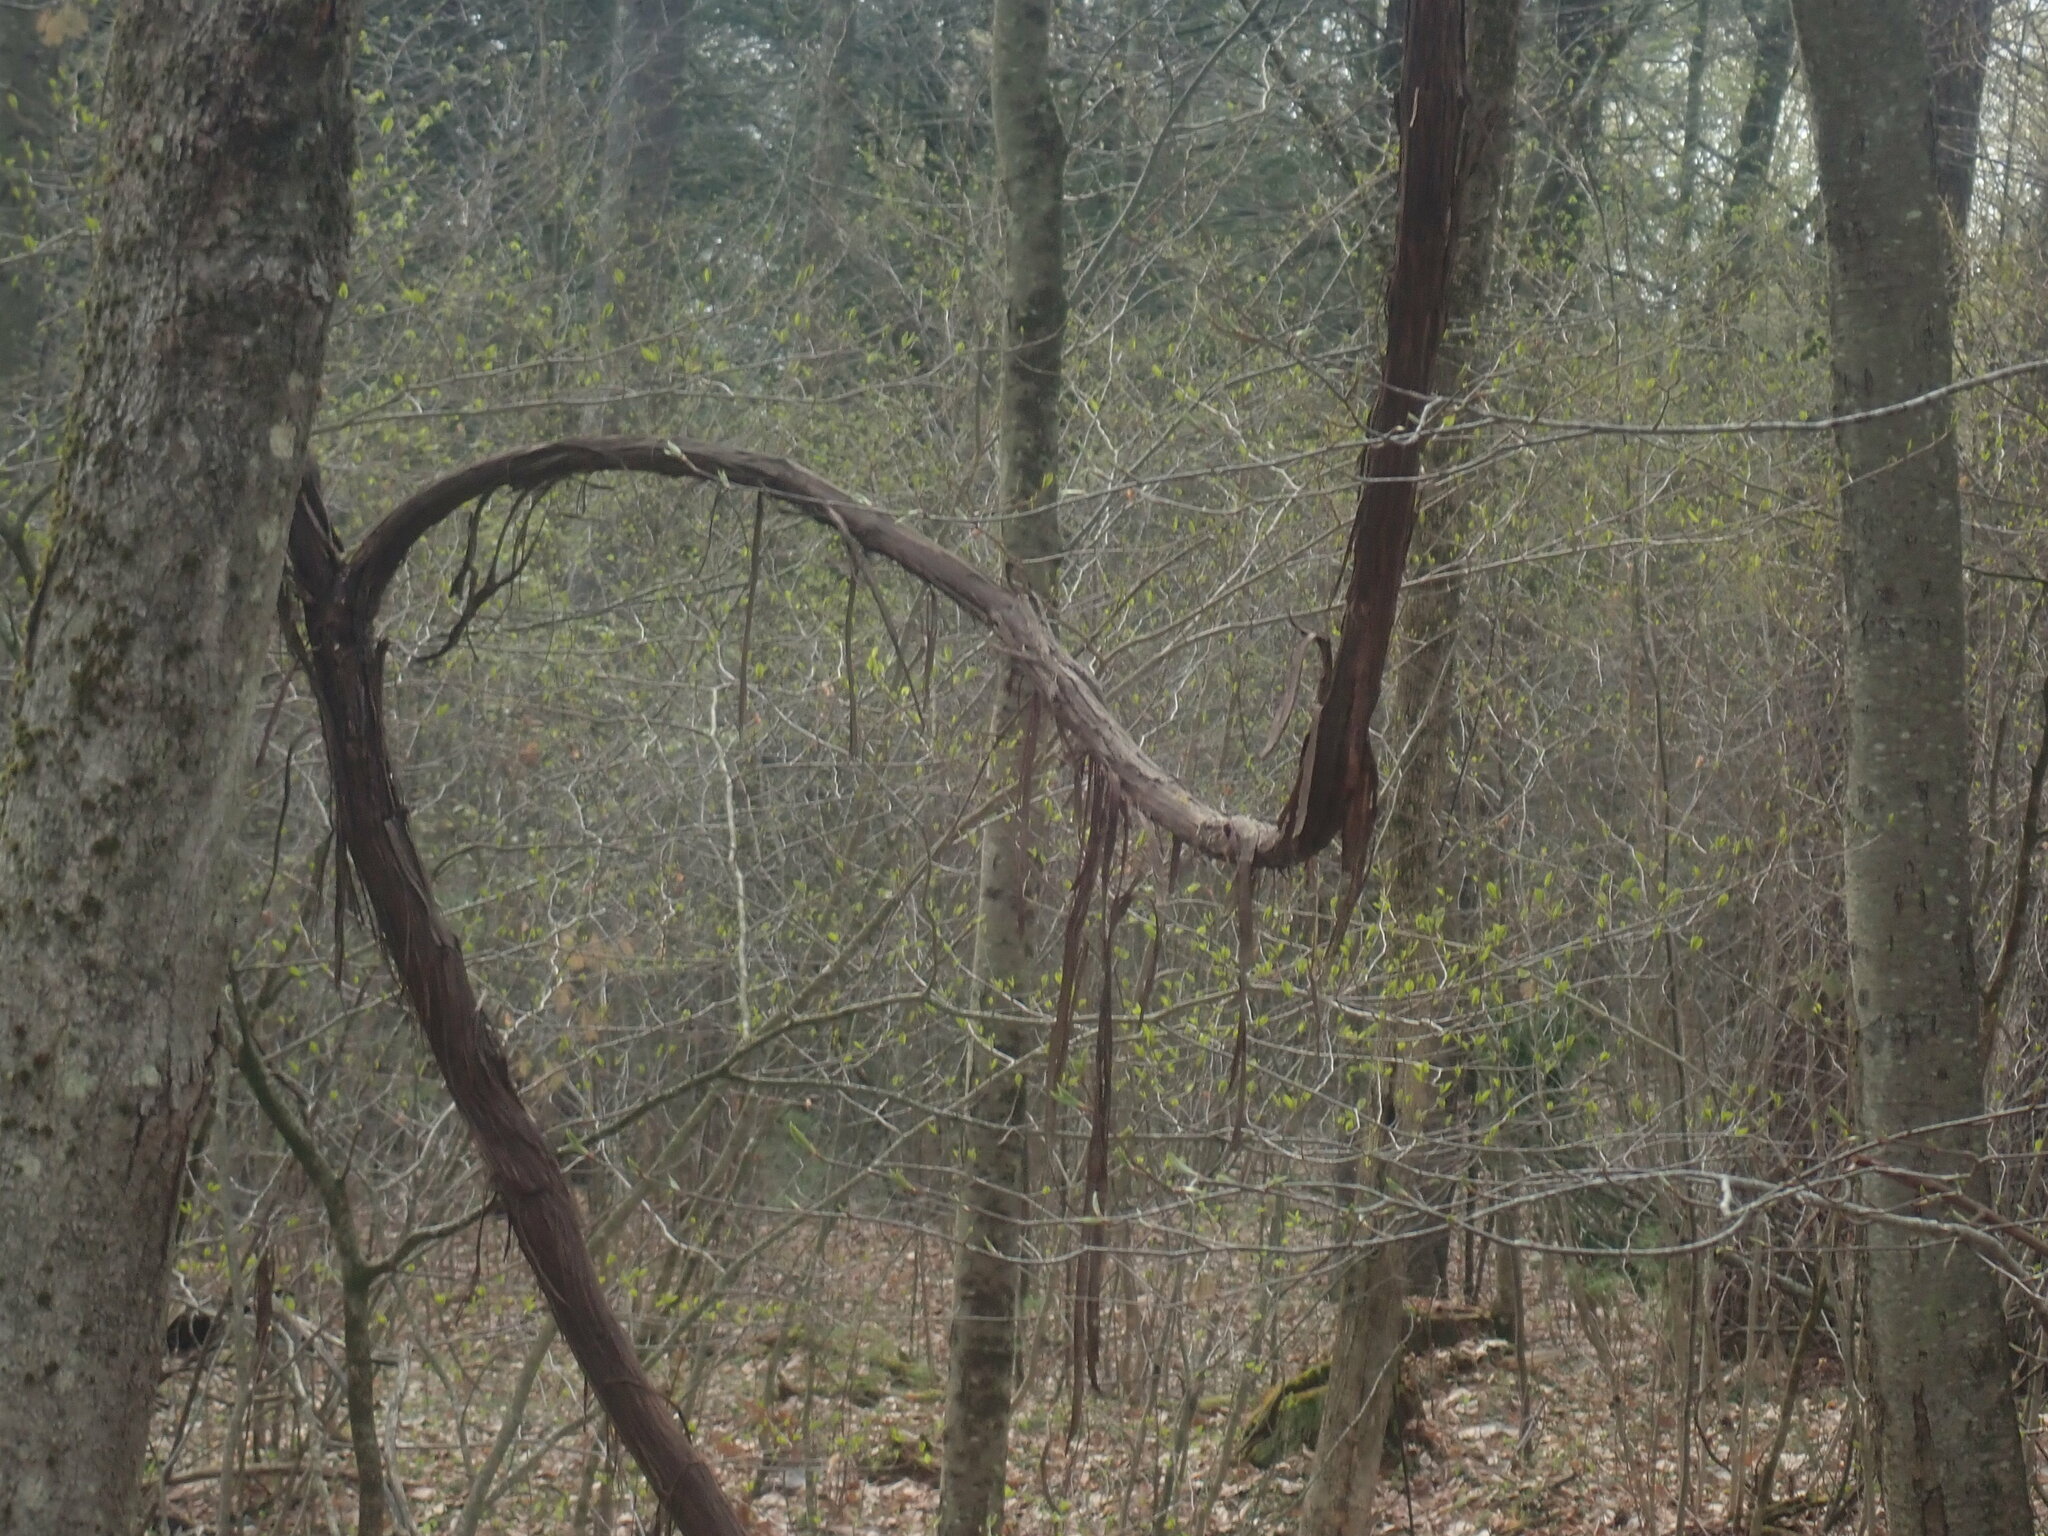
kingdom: Plantae
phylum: Tracheophyta
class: Magnoliopsida
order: Vitales
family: Vitaceae
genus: Vitis
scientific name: Vitis
